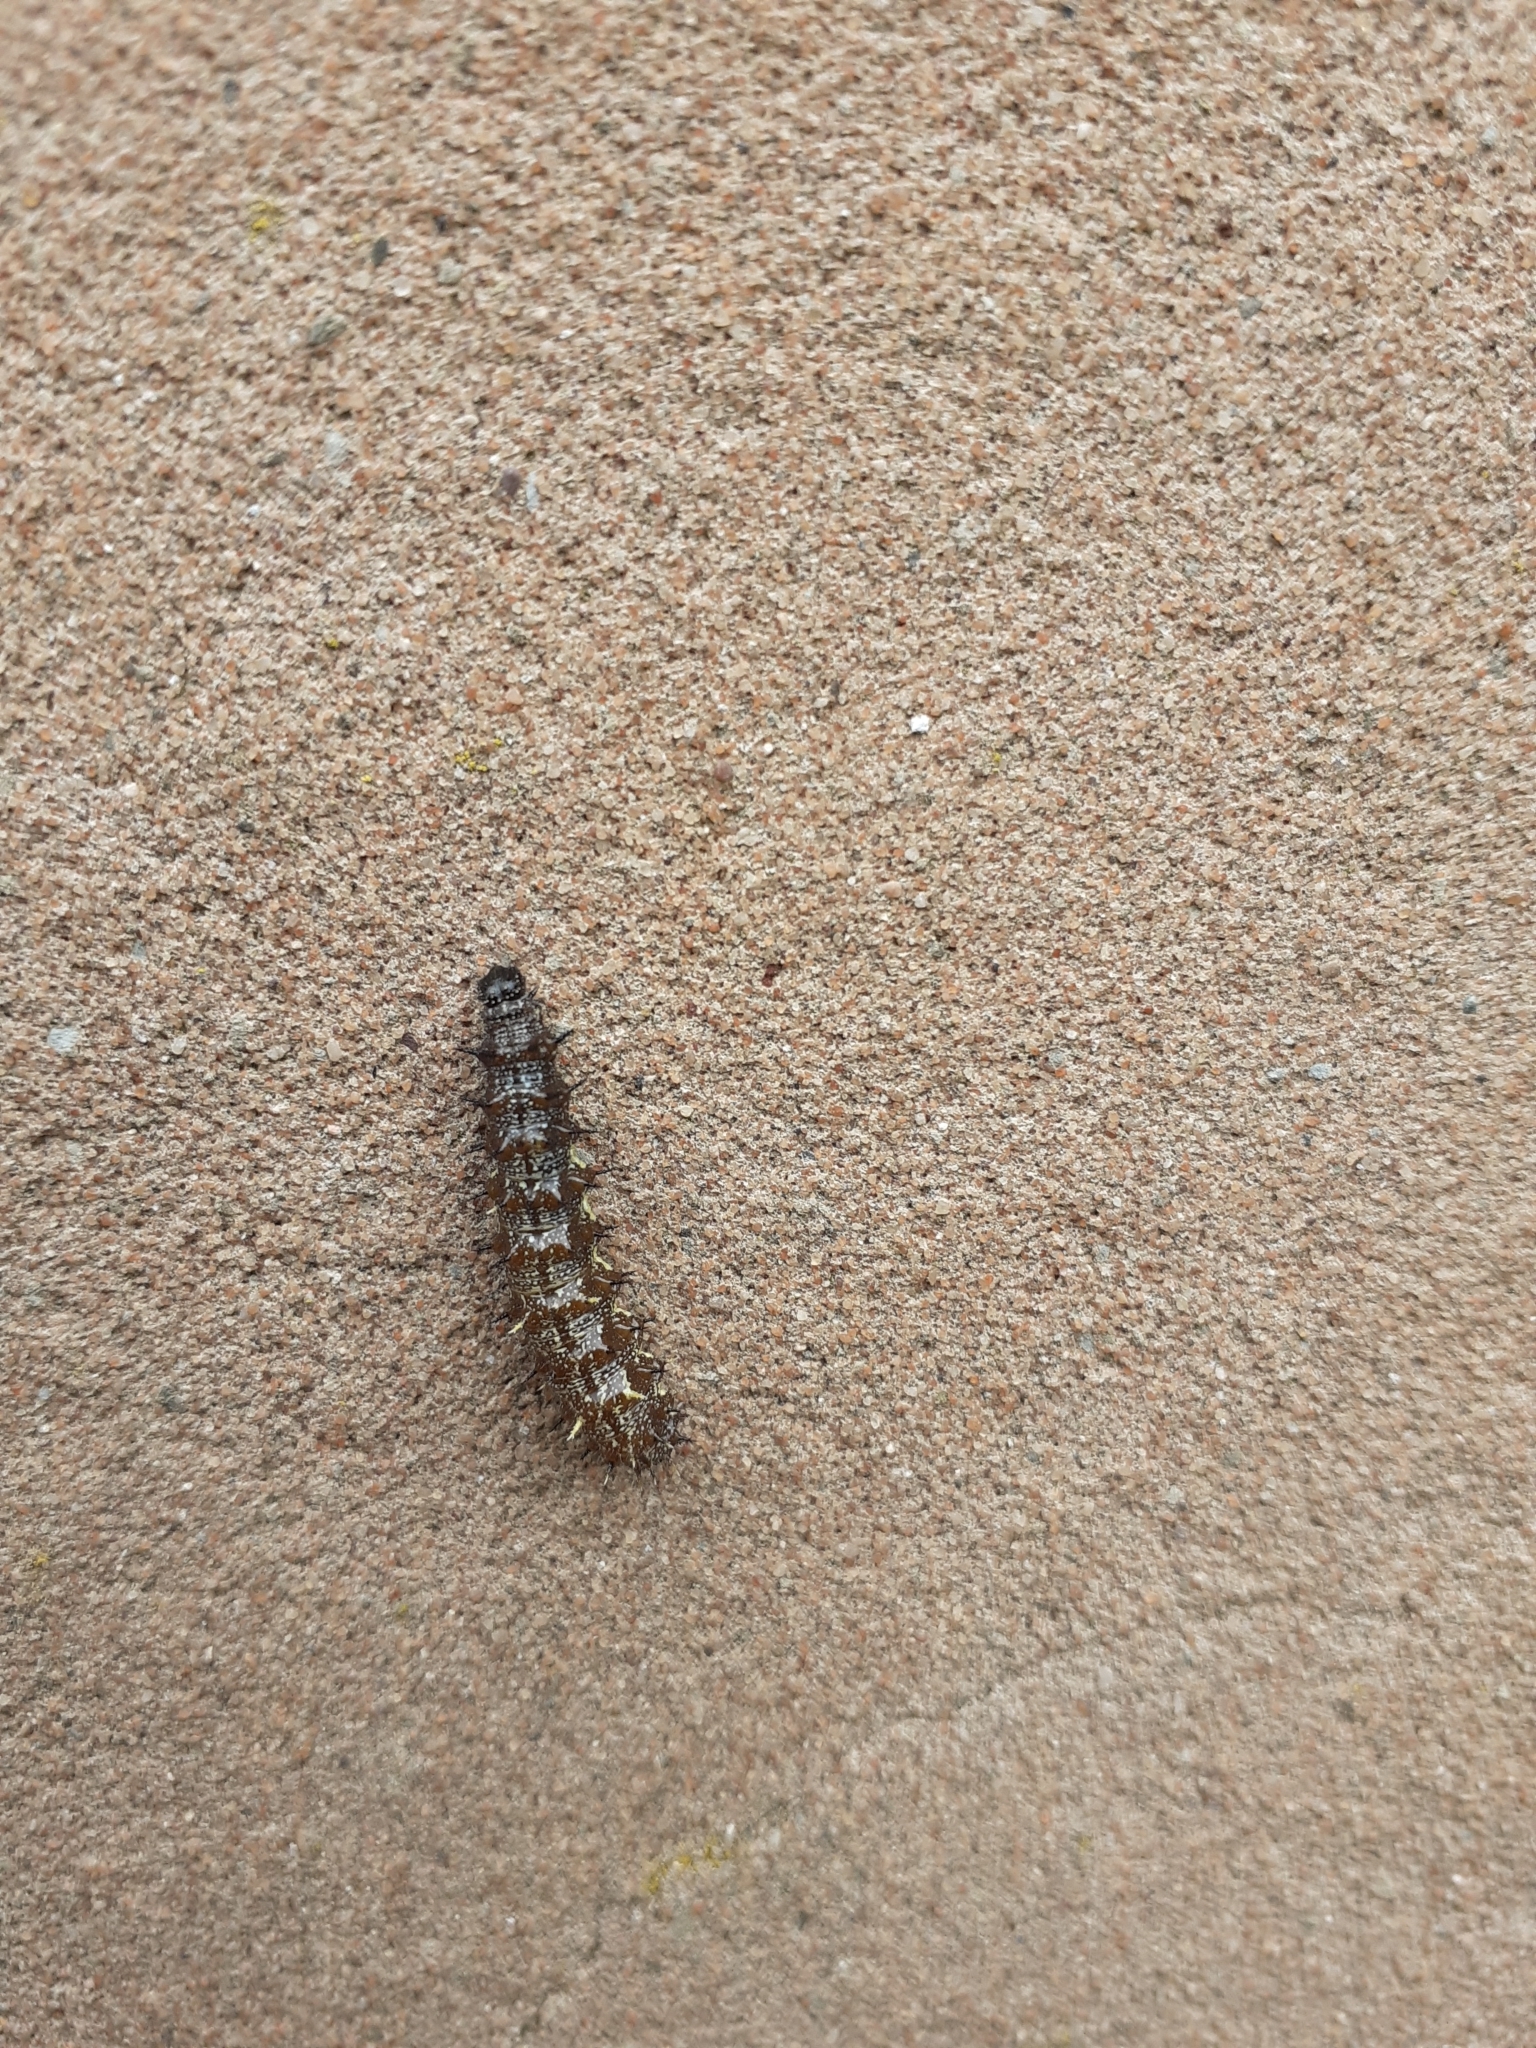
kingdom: Animalia
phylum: Arthropoda
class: Insecta
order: Lepidoptera
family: Nymphalidae
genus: Vanessa
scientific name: Vanessa atalanta
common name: Red admiral
